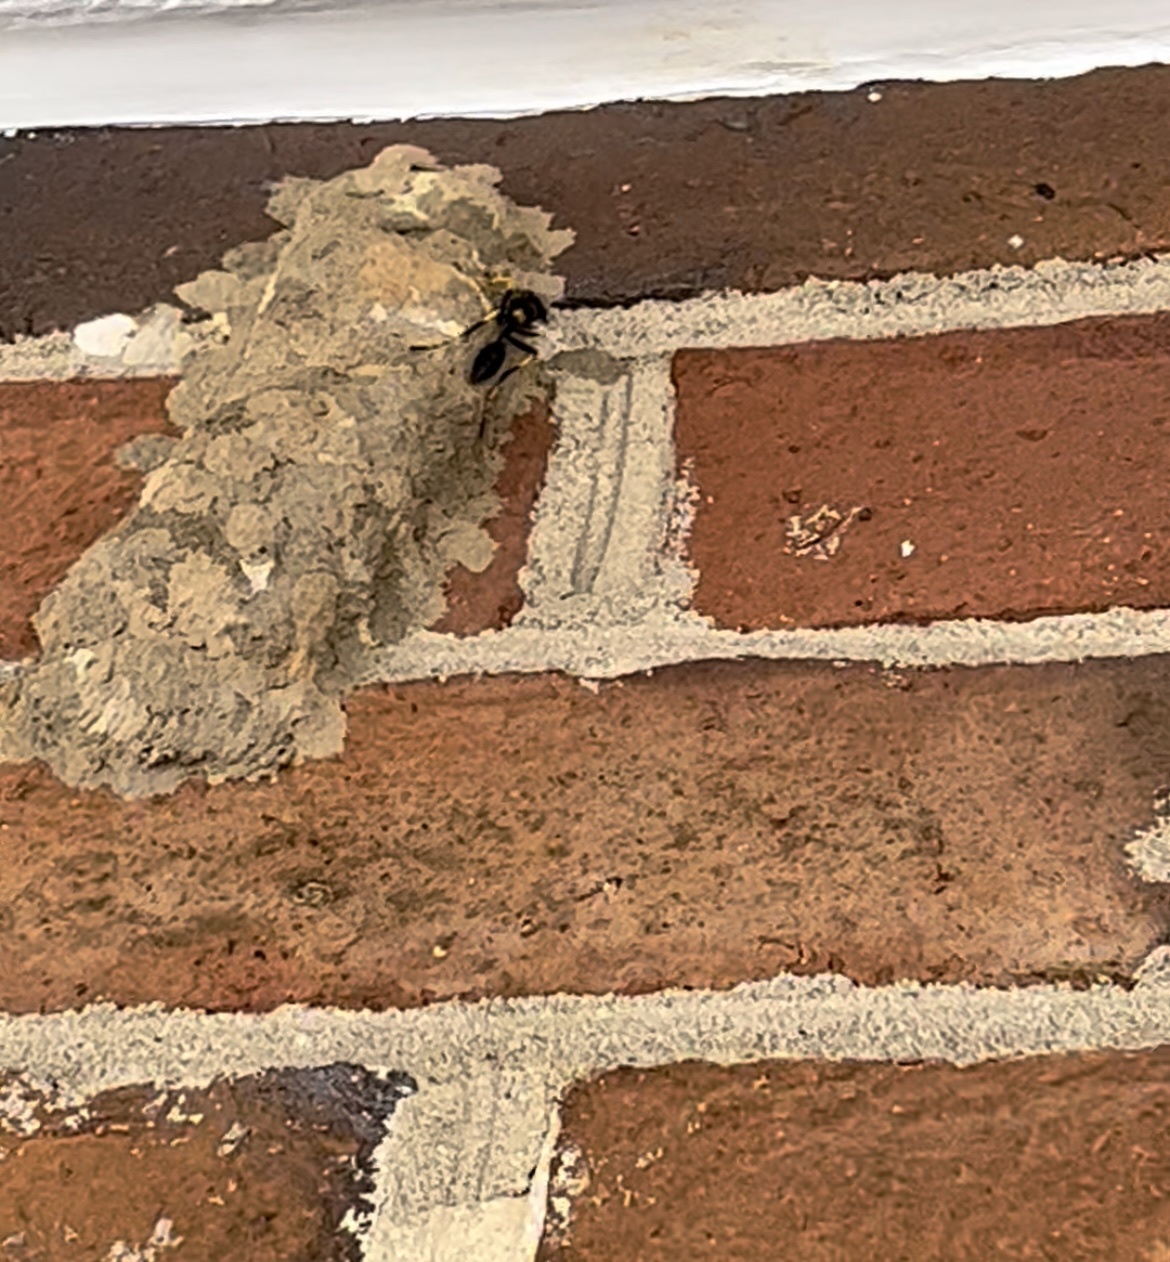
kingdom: Animalia
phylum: Arthropoda
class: Insecta
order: Hymenoptera
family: Sphecidae
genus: Sceliphron
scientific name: Sceliphron caementarium
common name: Mud dauber
